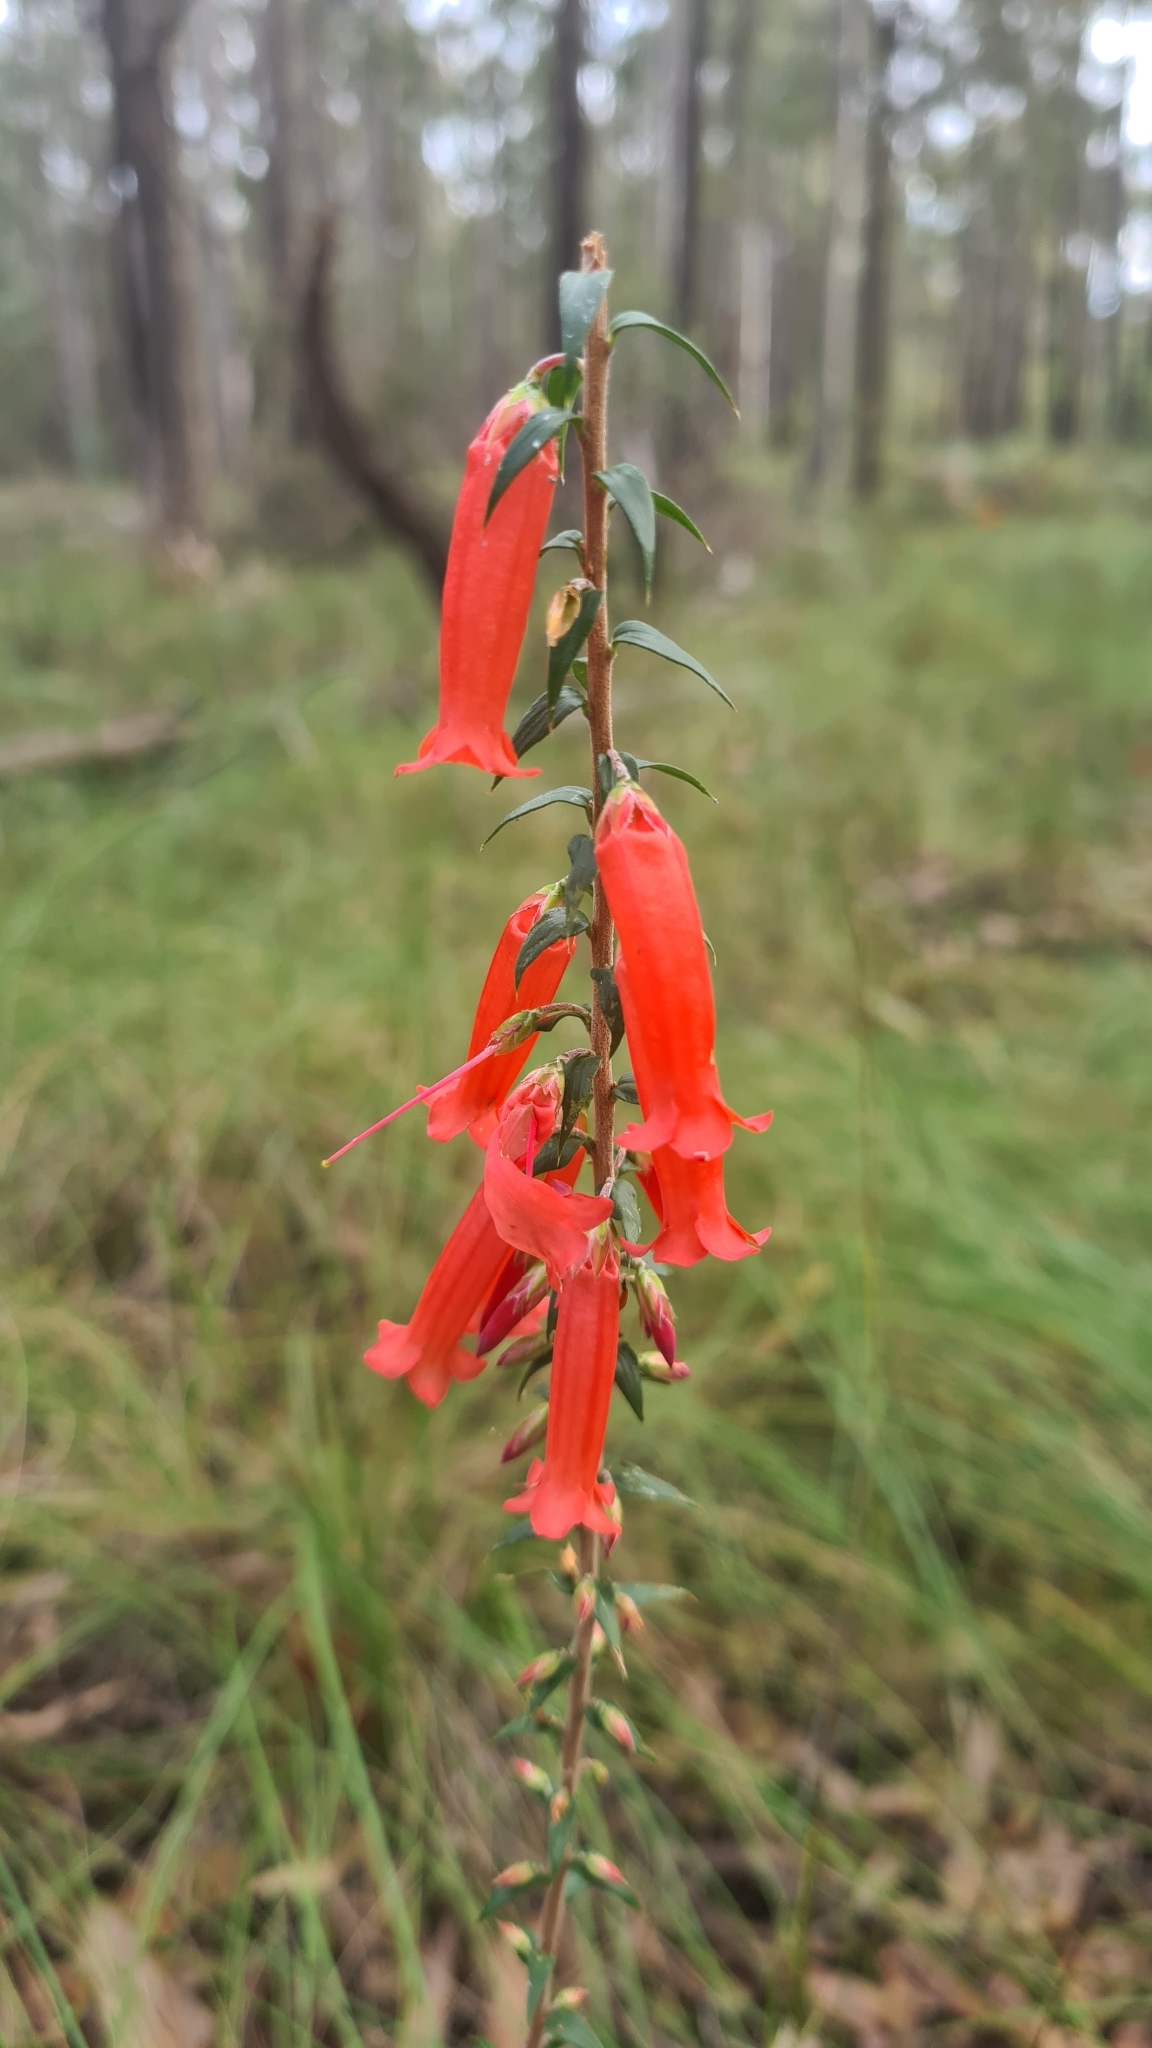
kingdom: Plantae
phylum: Tracheophyta
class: Magnoliopsida
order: Ericales
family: Ericaceae
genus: Epacris
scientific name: Epacris impressa
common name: Common-heath
